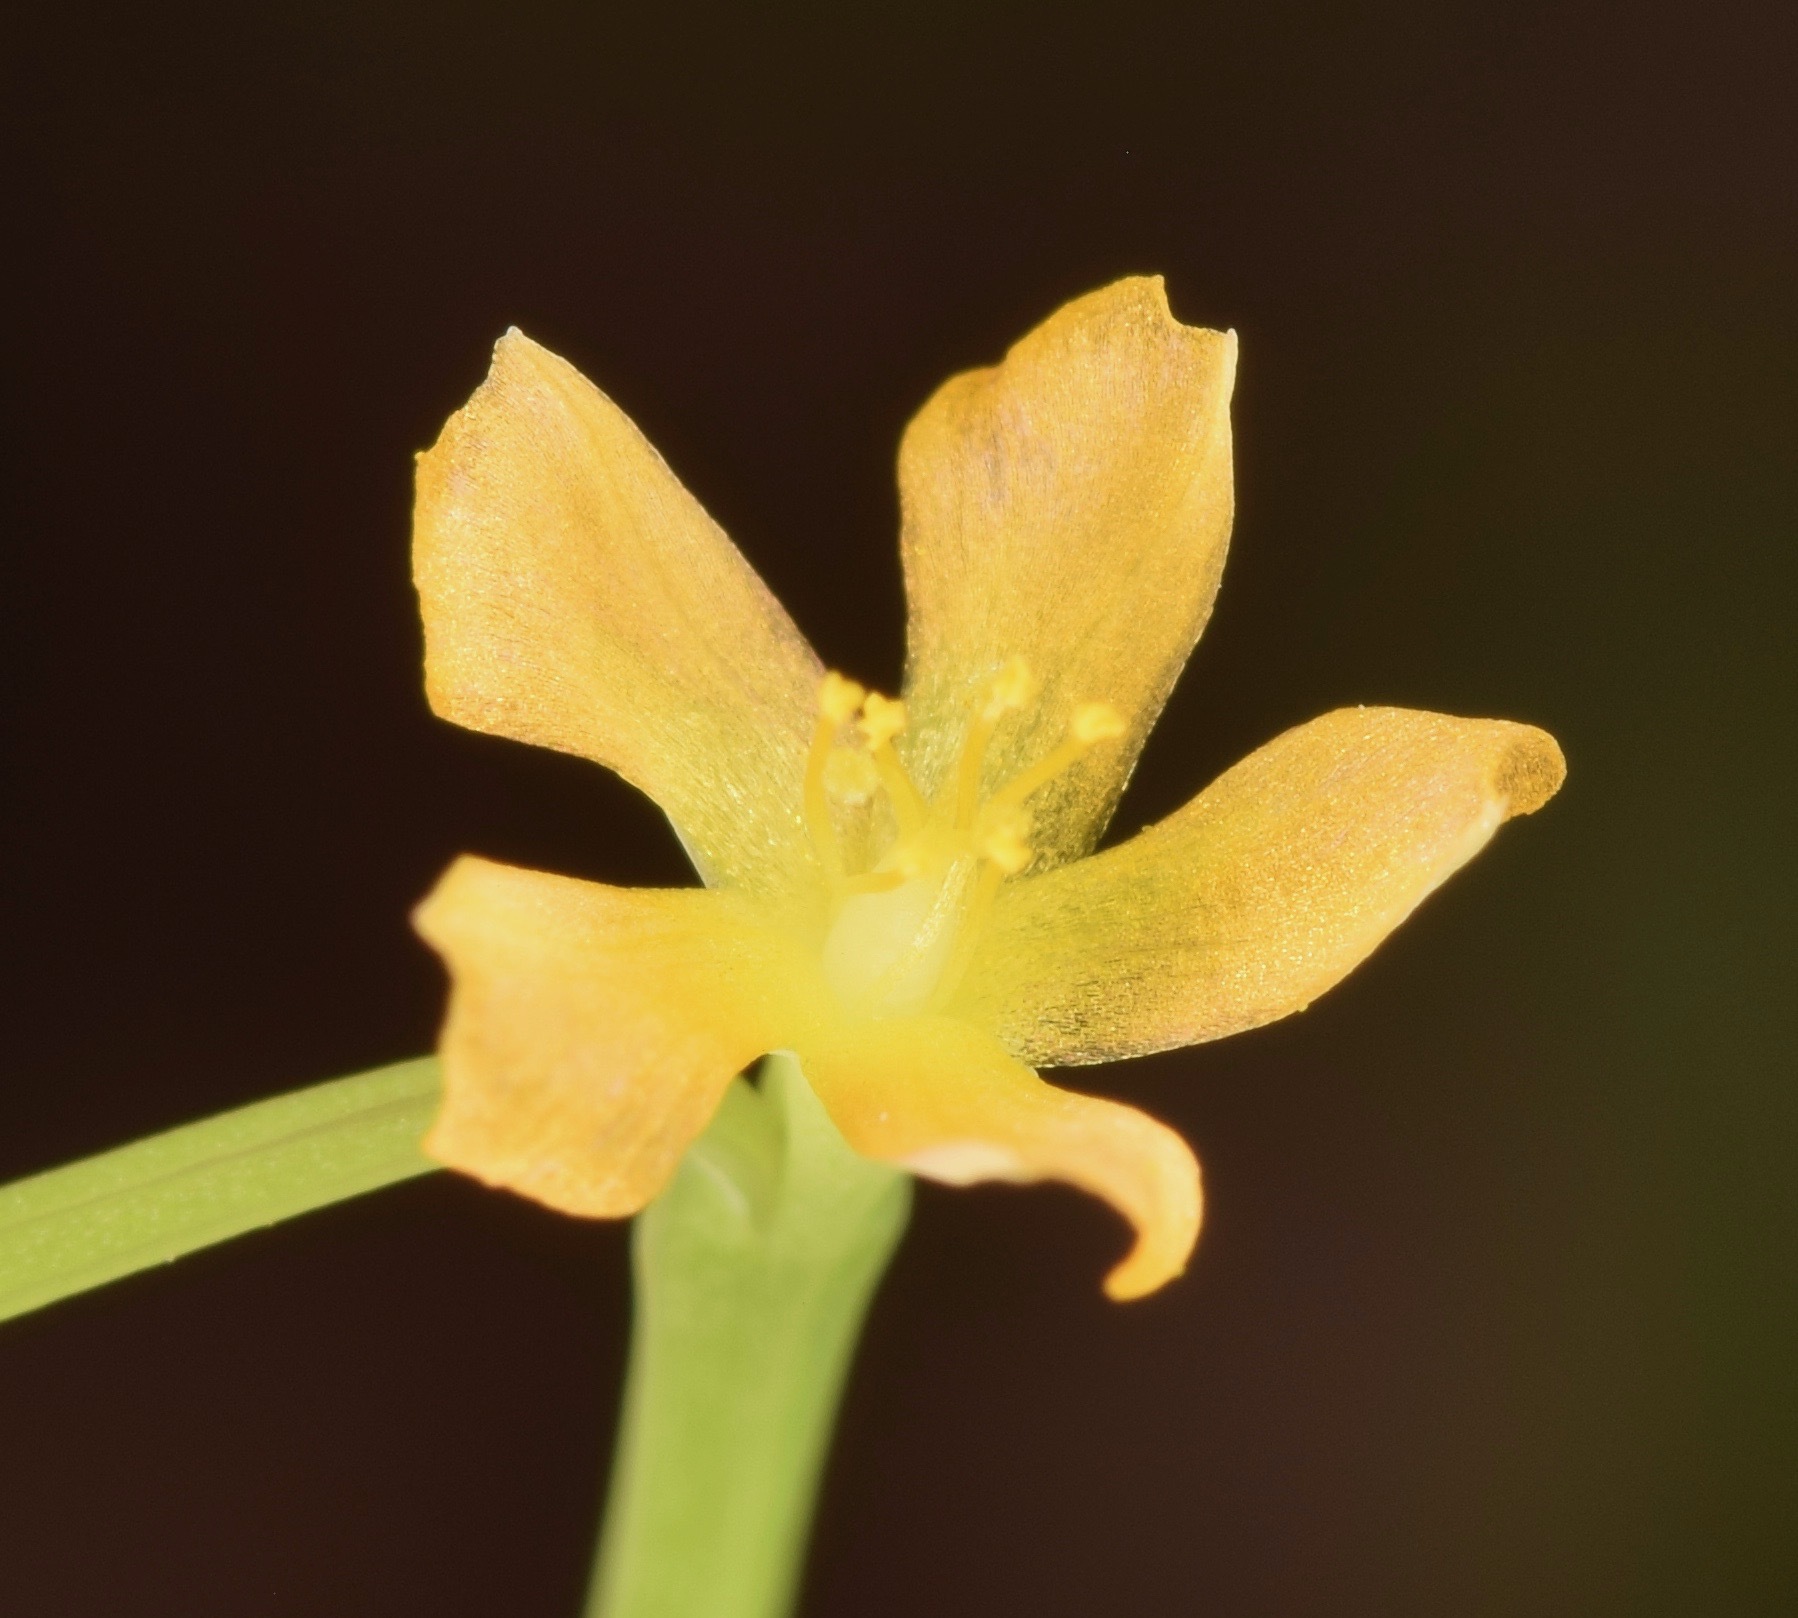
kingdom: Plantae
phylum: Tracheophyta
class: Magnoliopsida
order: Malpighiales
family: Hypericaceae
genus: Hypericum
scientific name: Hypericum gentianoides
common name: Gentian-leaved st. john's-wort
